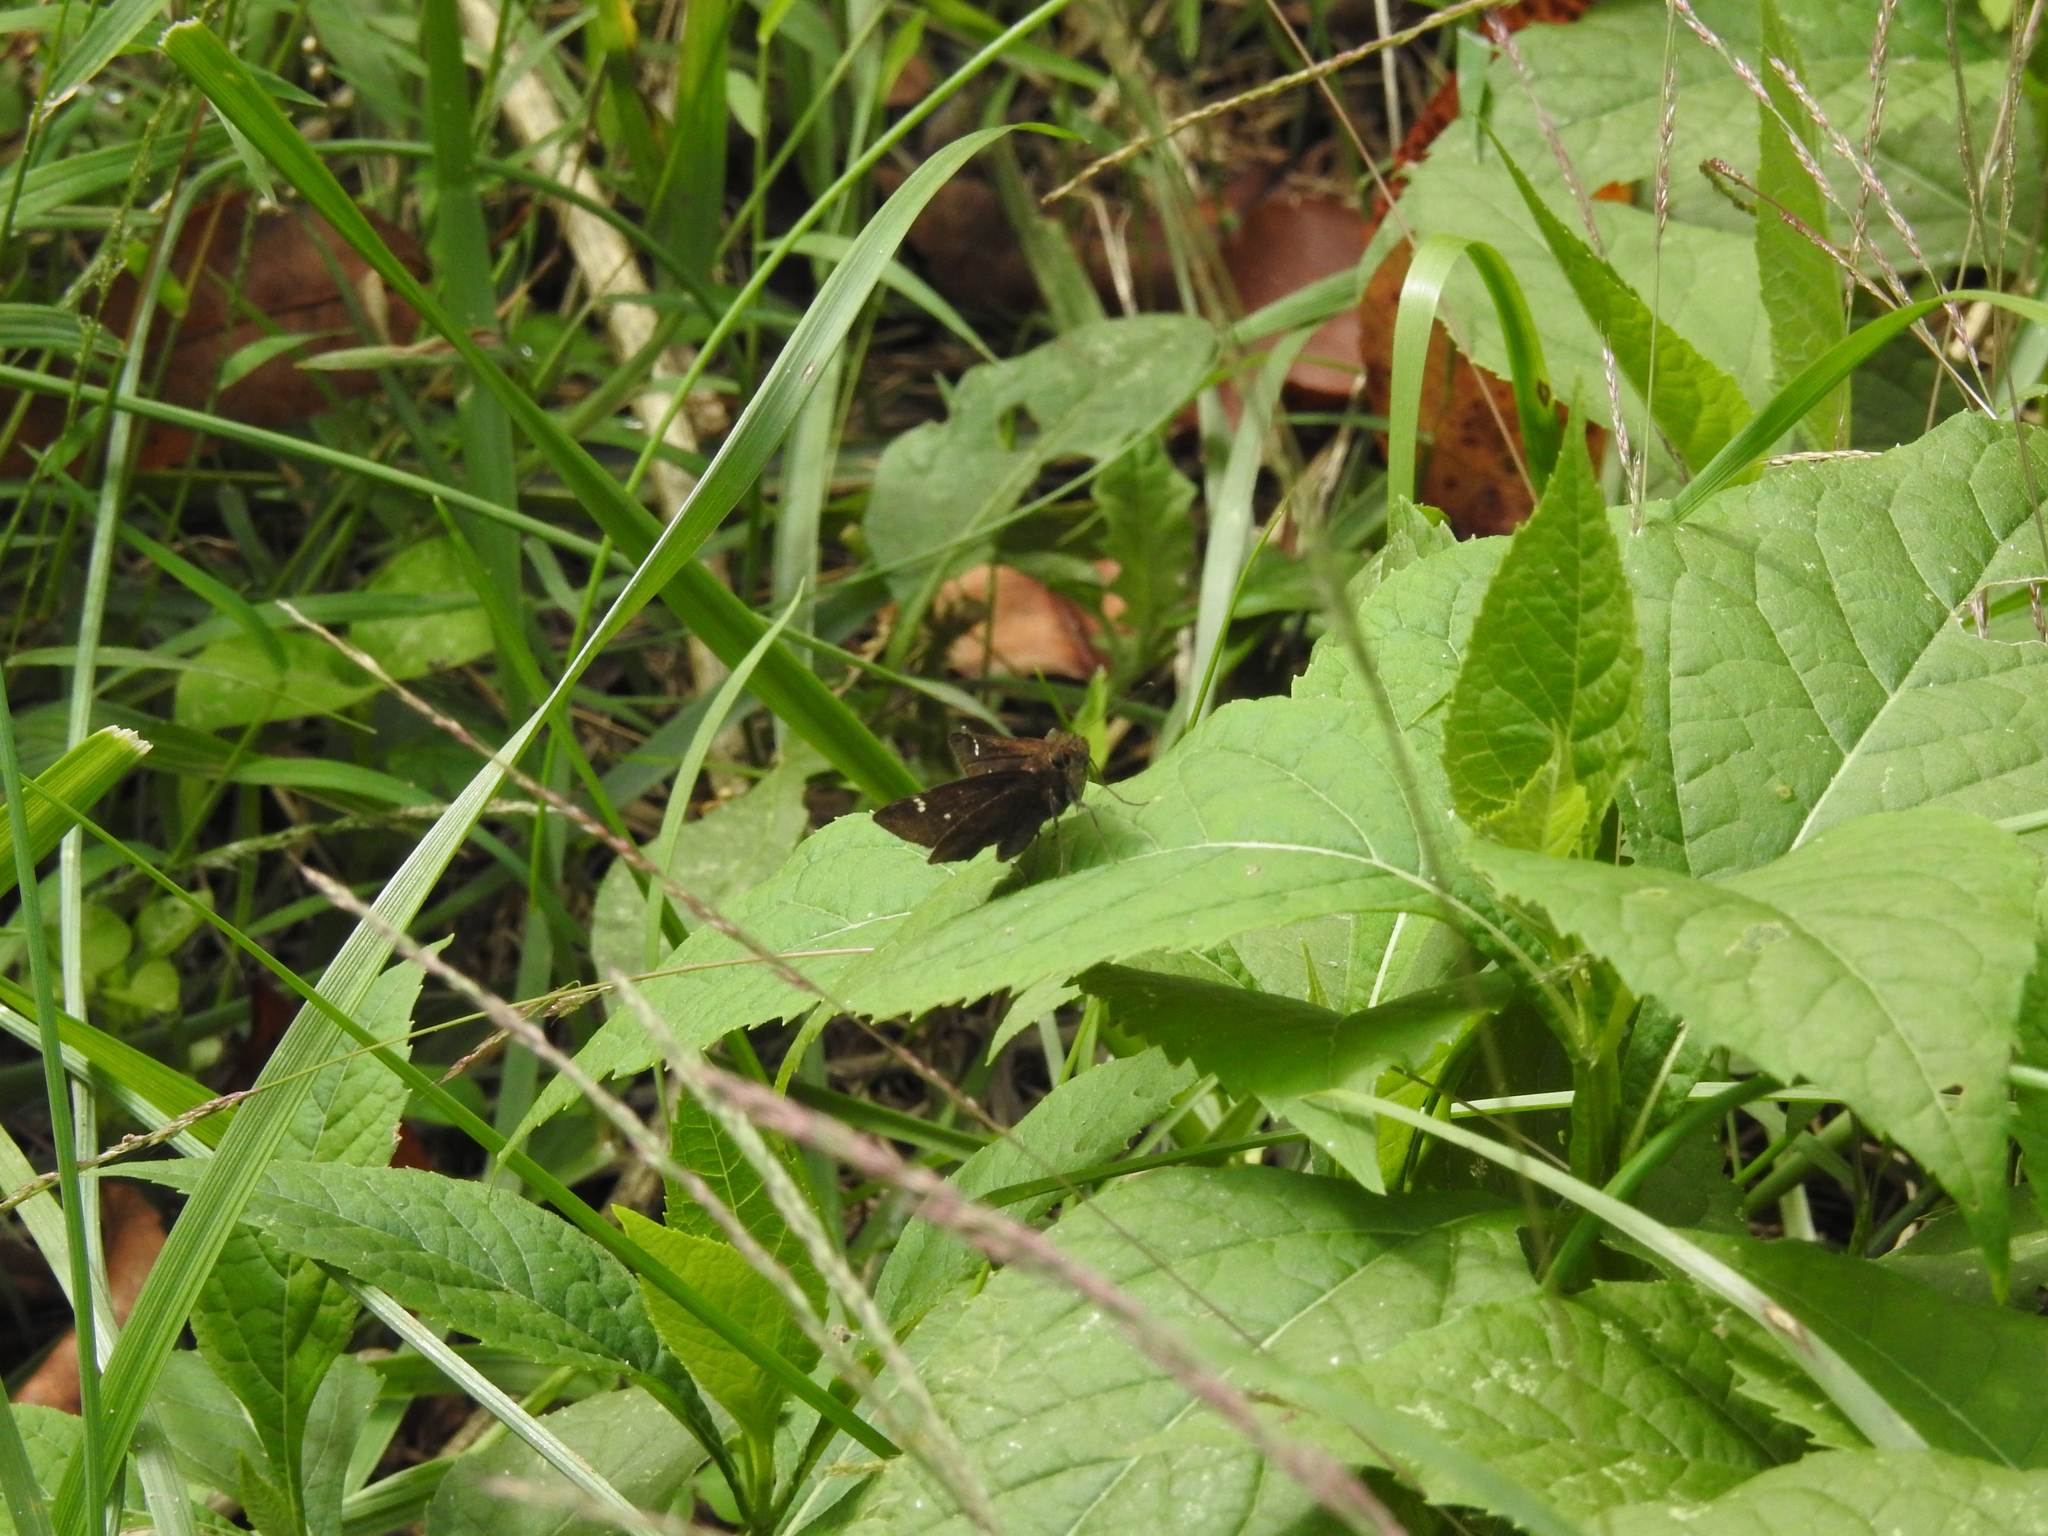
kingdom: Animalia
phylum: Arthropoda
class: Insecta
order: Lepidoptera
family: Hesperiidae
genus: Lerema
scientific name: Lerema accius
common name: Clouded skipper
